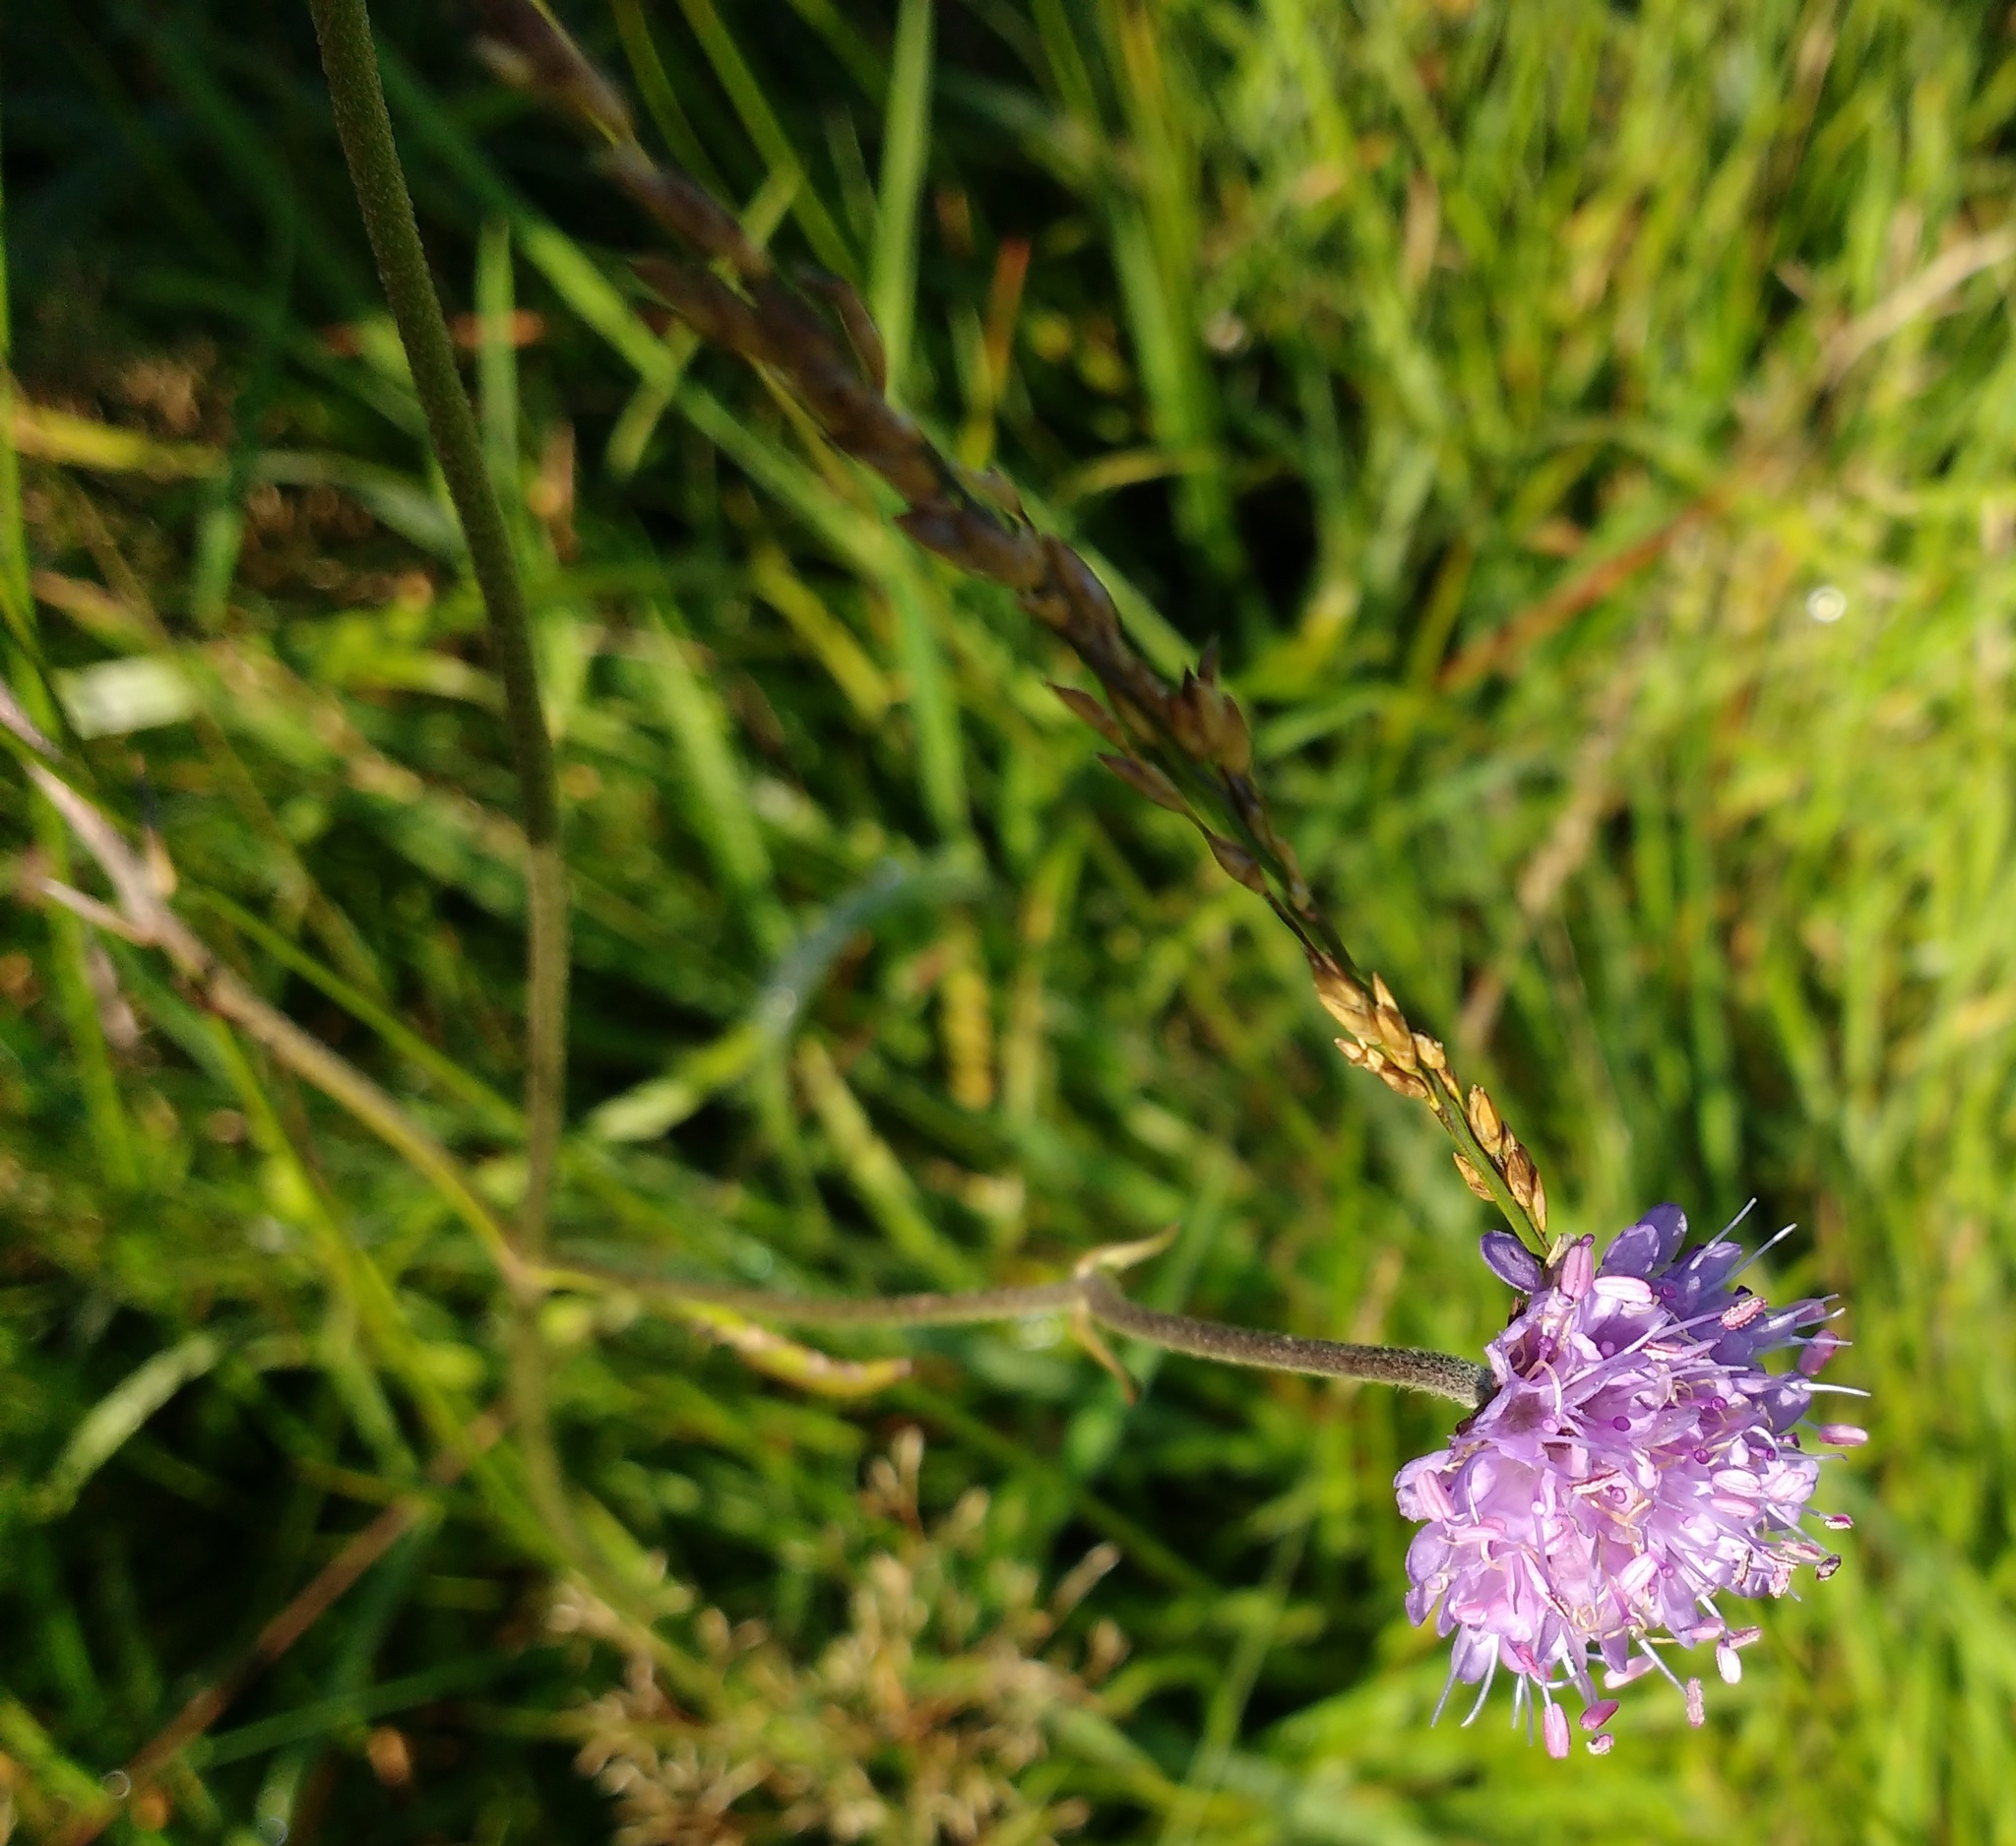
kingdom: Plantae
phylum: Tracheophyta
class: Magnoliopsida
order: Dipsacales
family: Caprifoliaceae
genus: Succisa
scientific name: Succisa pratensis
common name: Devil's-bit
